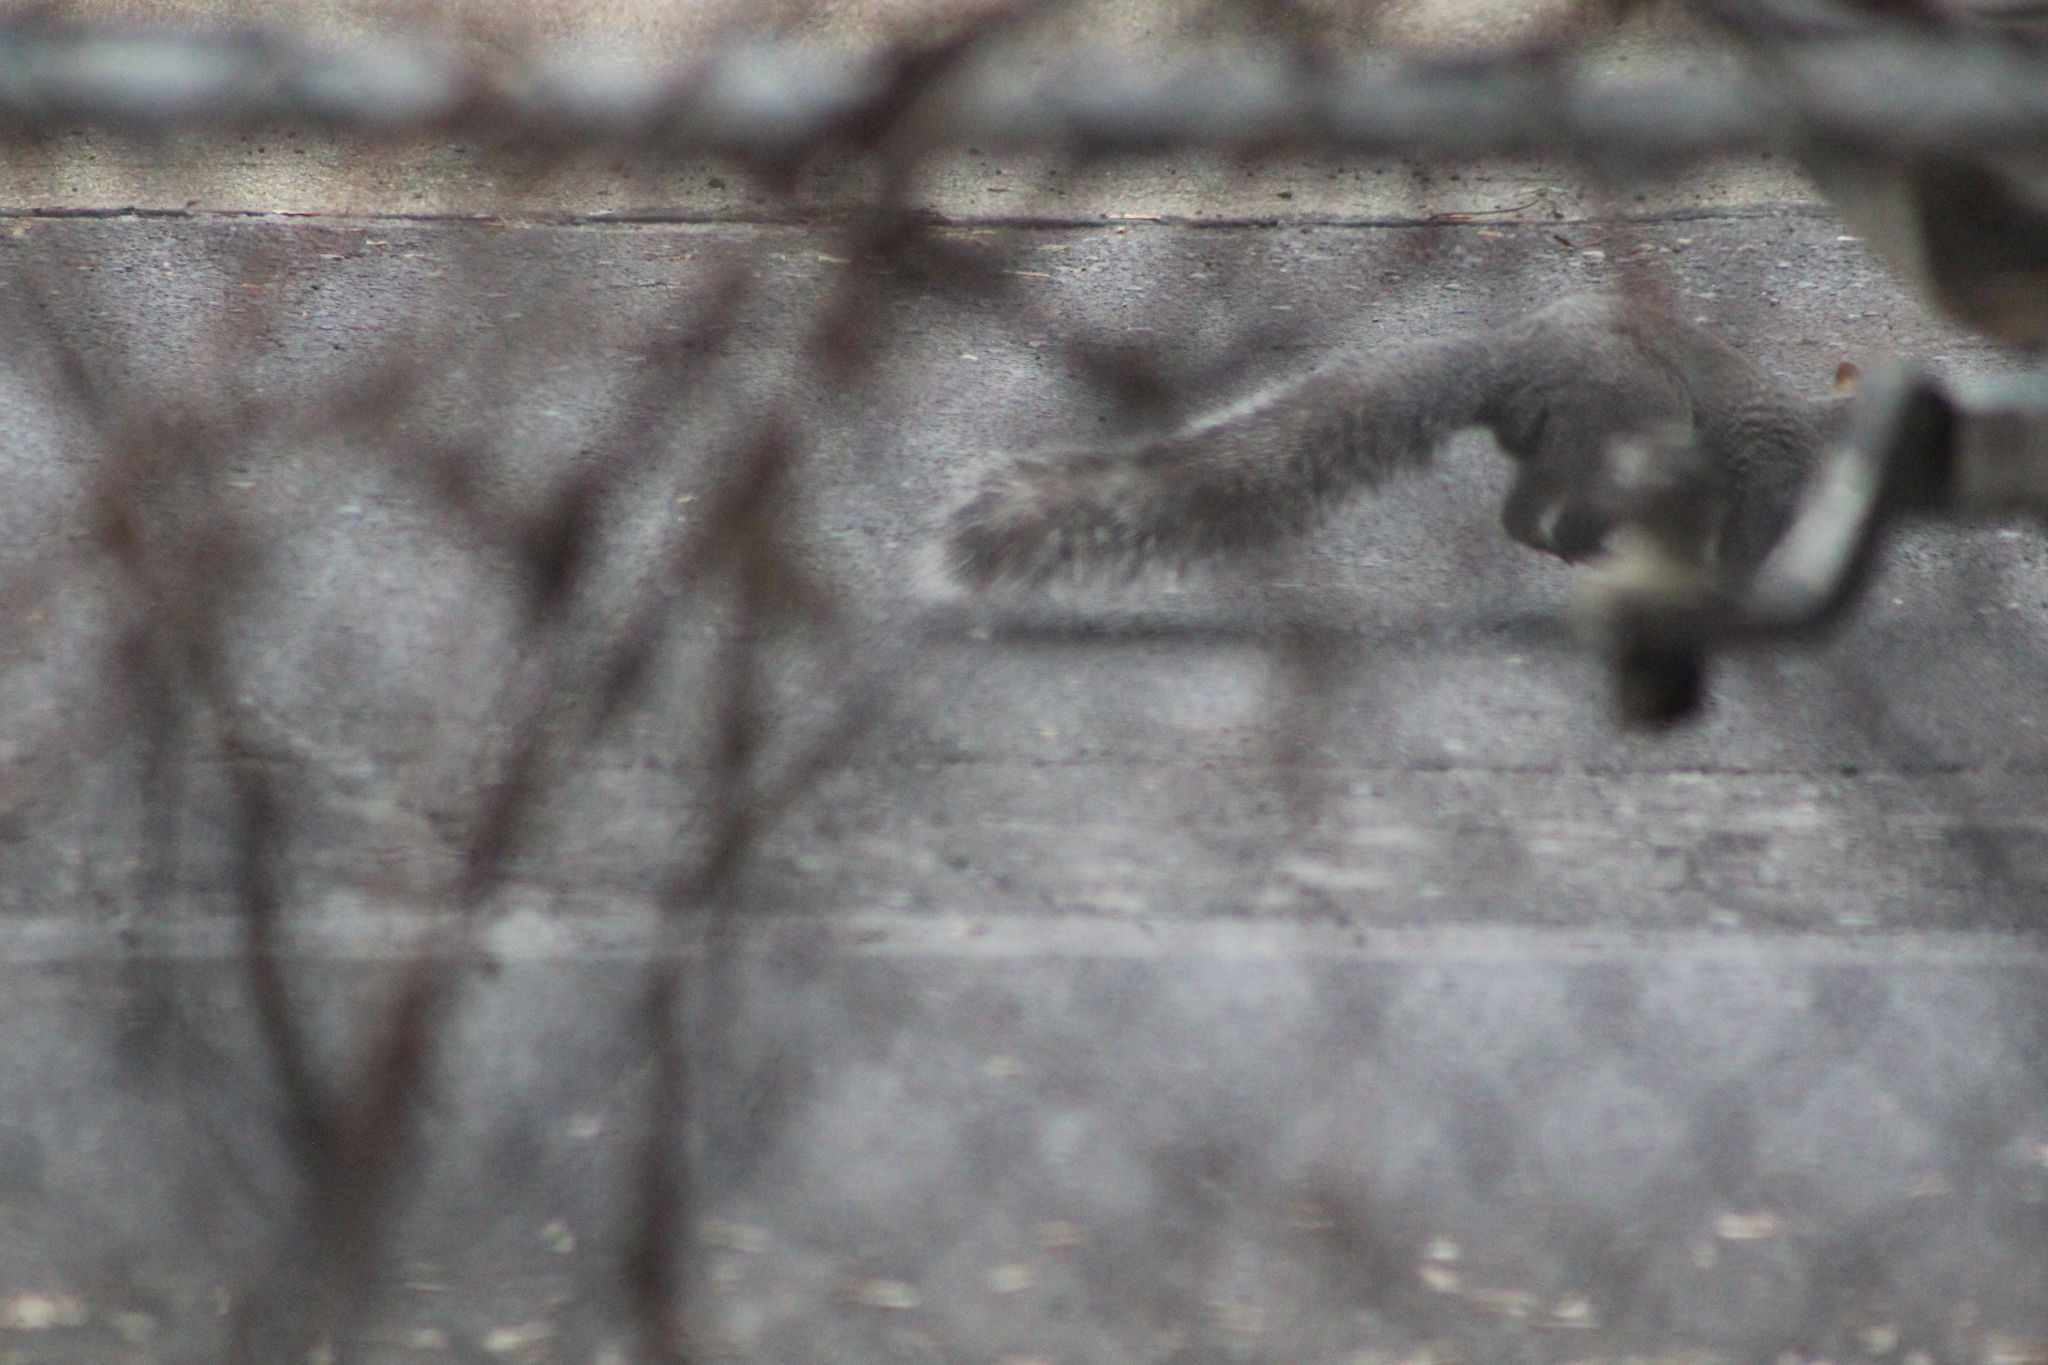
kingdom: Animalia
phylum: Chordata
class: Mammalia
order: Rodentia
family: Sciuridae
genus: Sciurus
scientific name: Sciurus griseus
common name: Western gray squirrel
